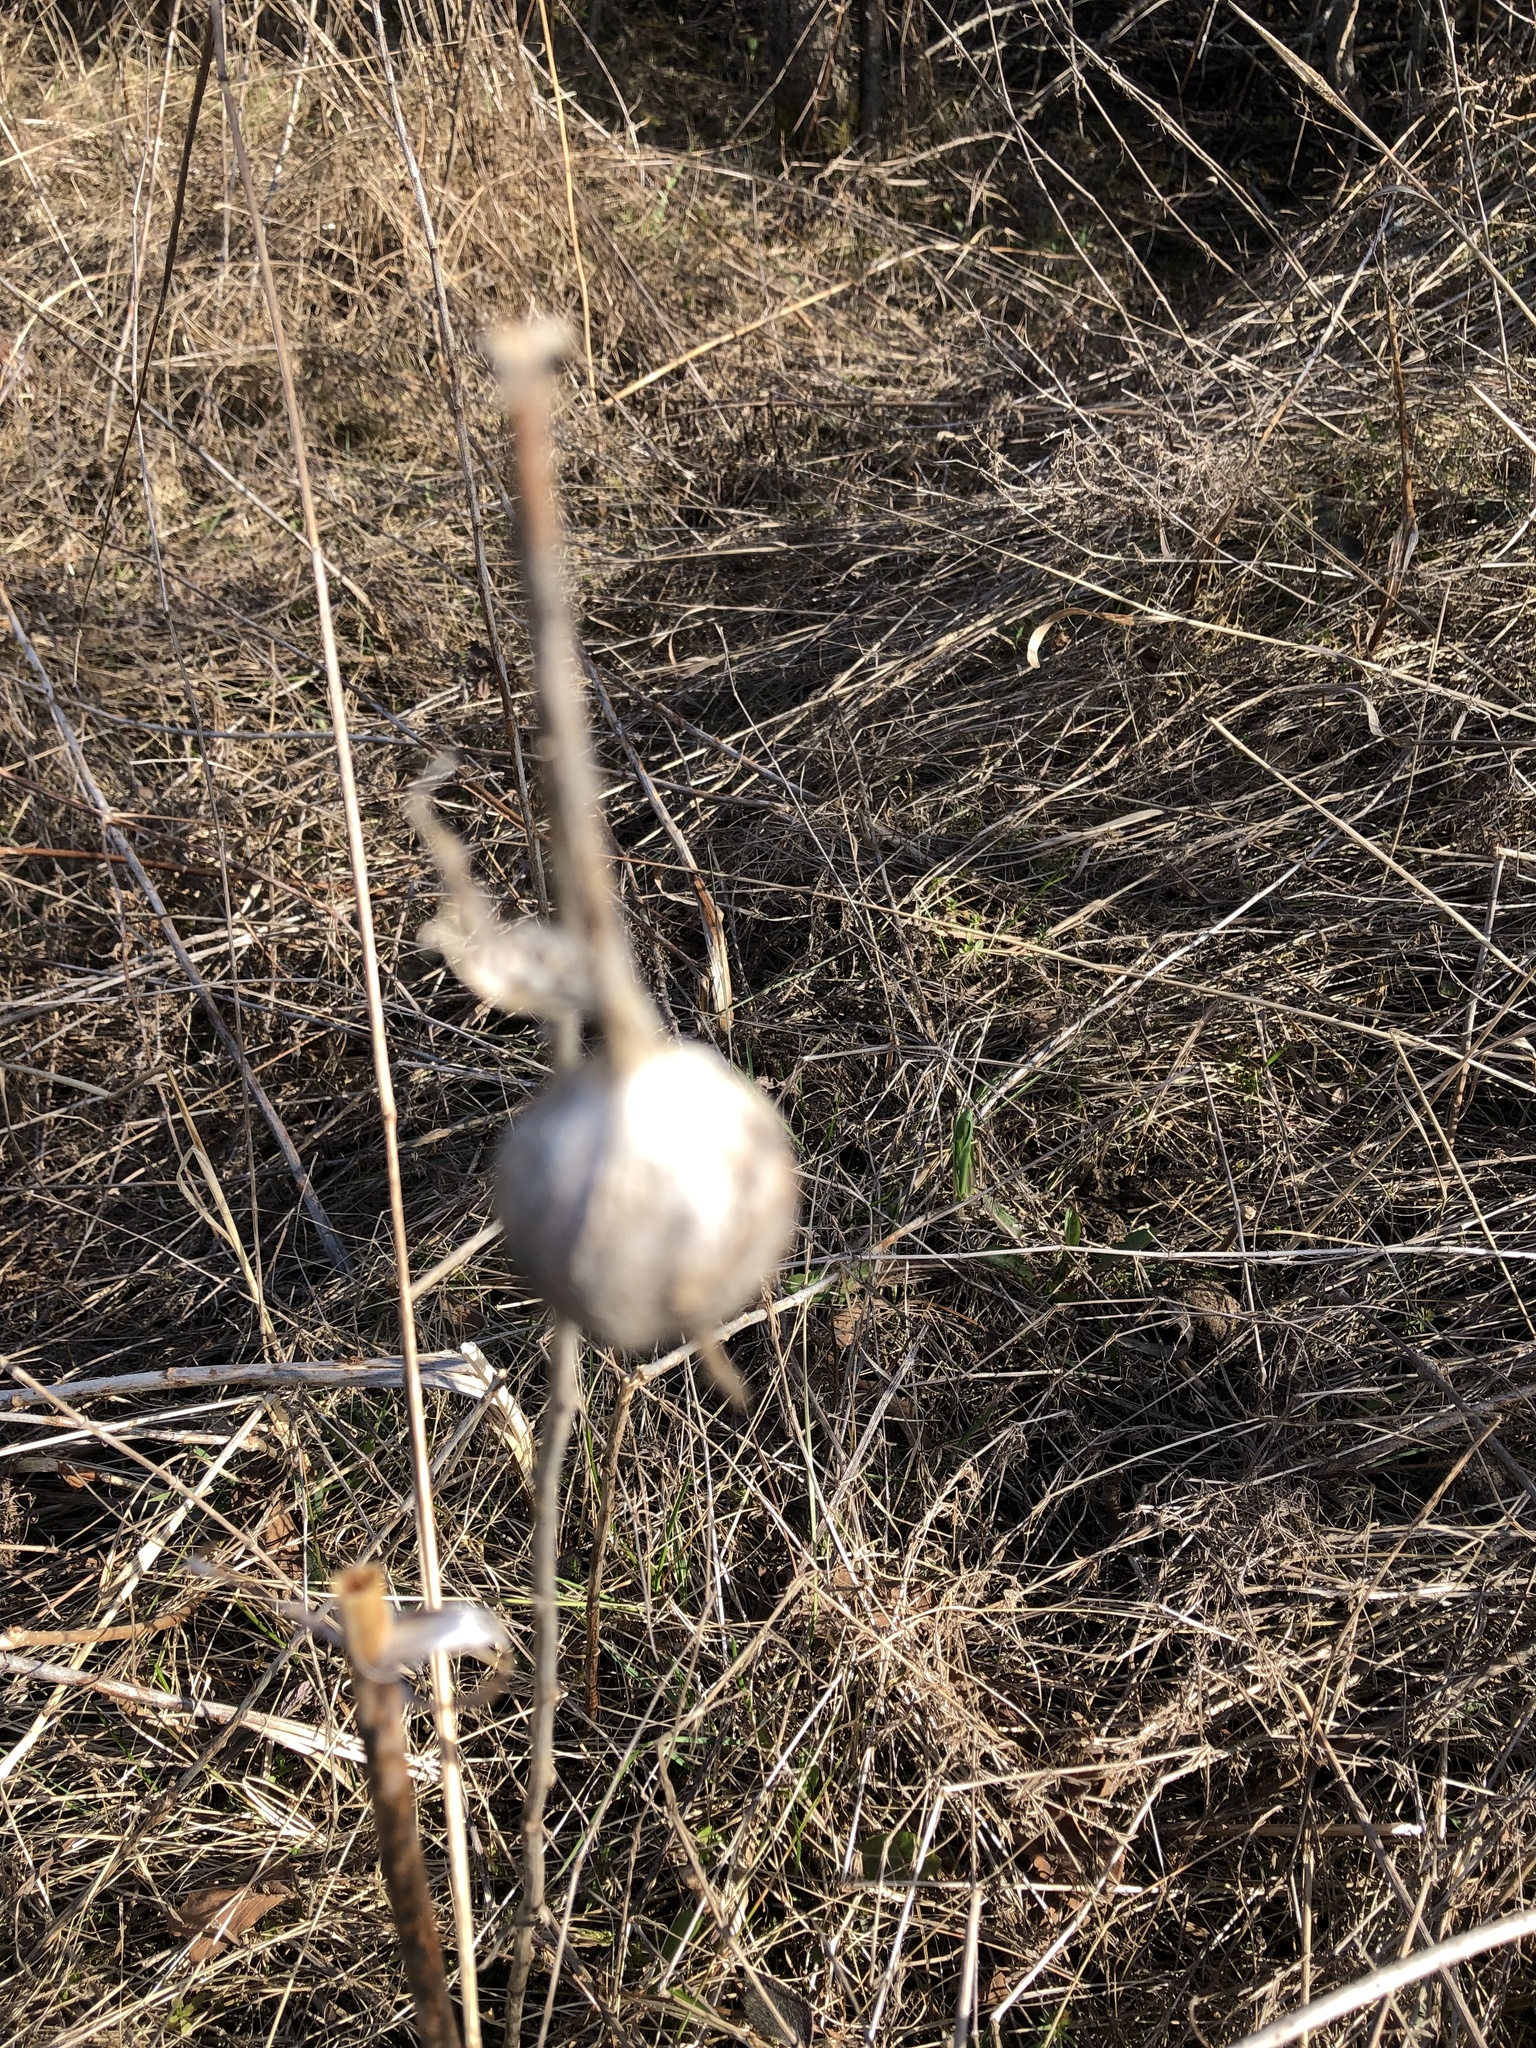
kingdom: Animalia
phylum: Arthropoda
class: Insecta
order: Diptera
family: Tephritidae
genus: Eurosta
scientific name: Eurosta solidaginis
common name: Goldenrod gall fly
